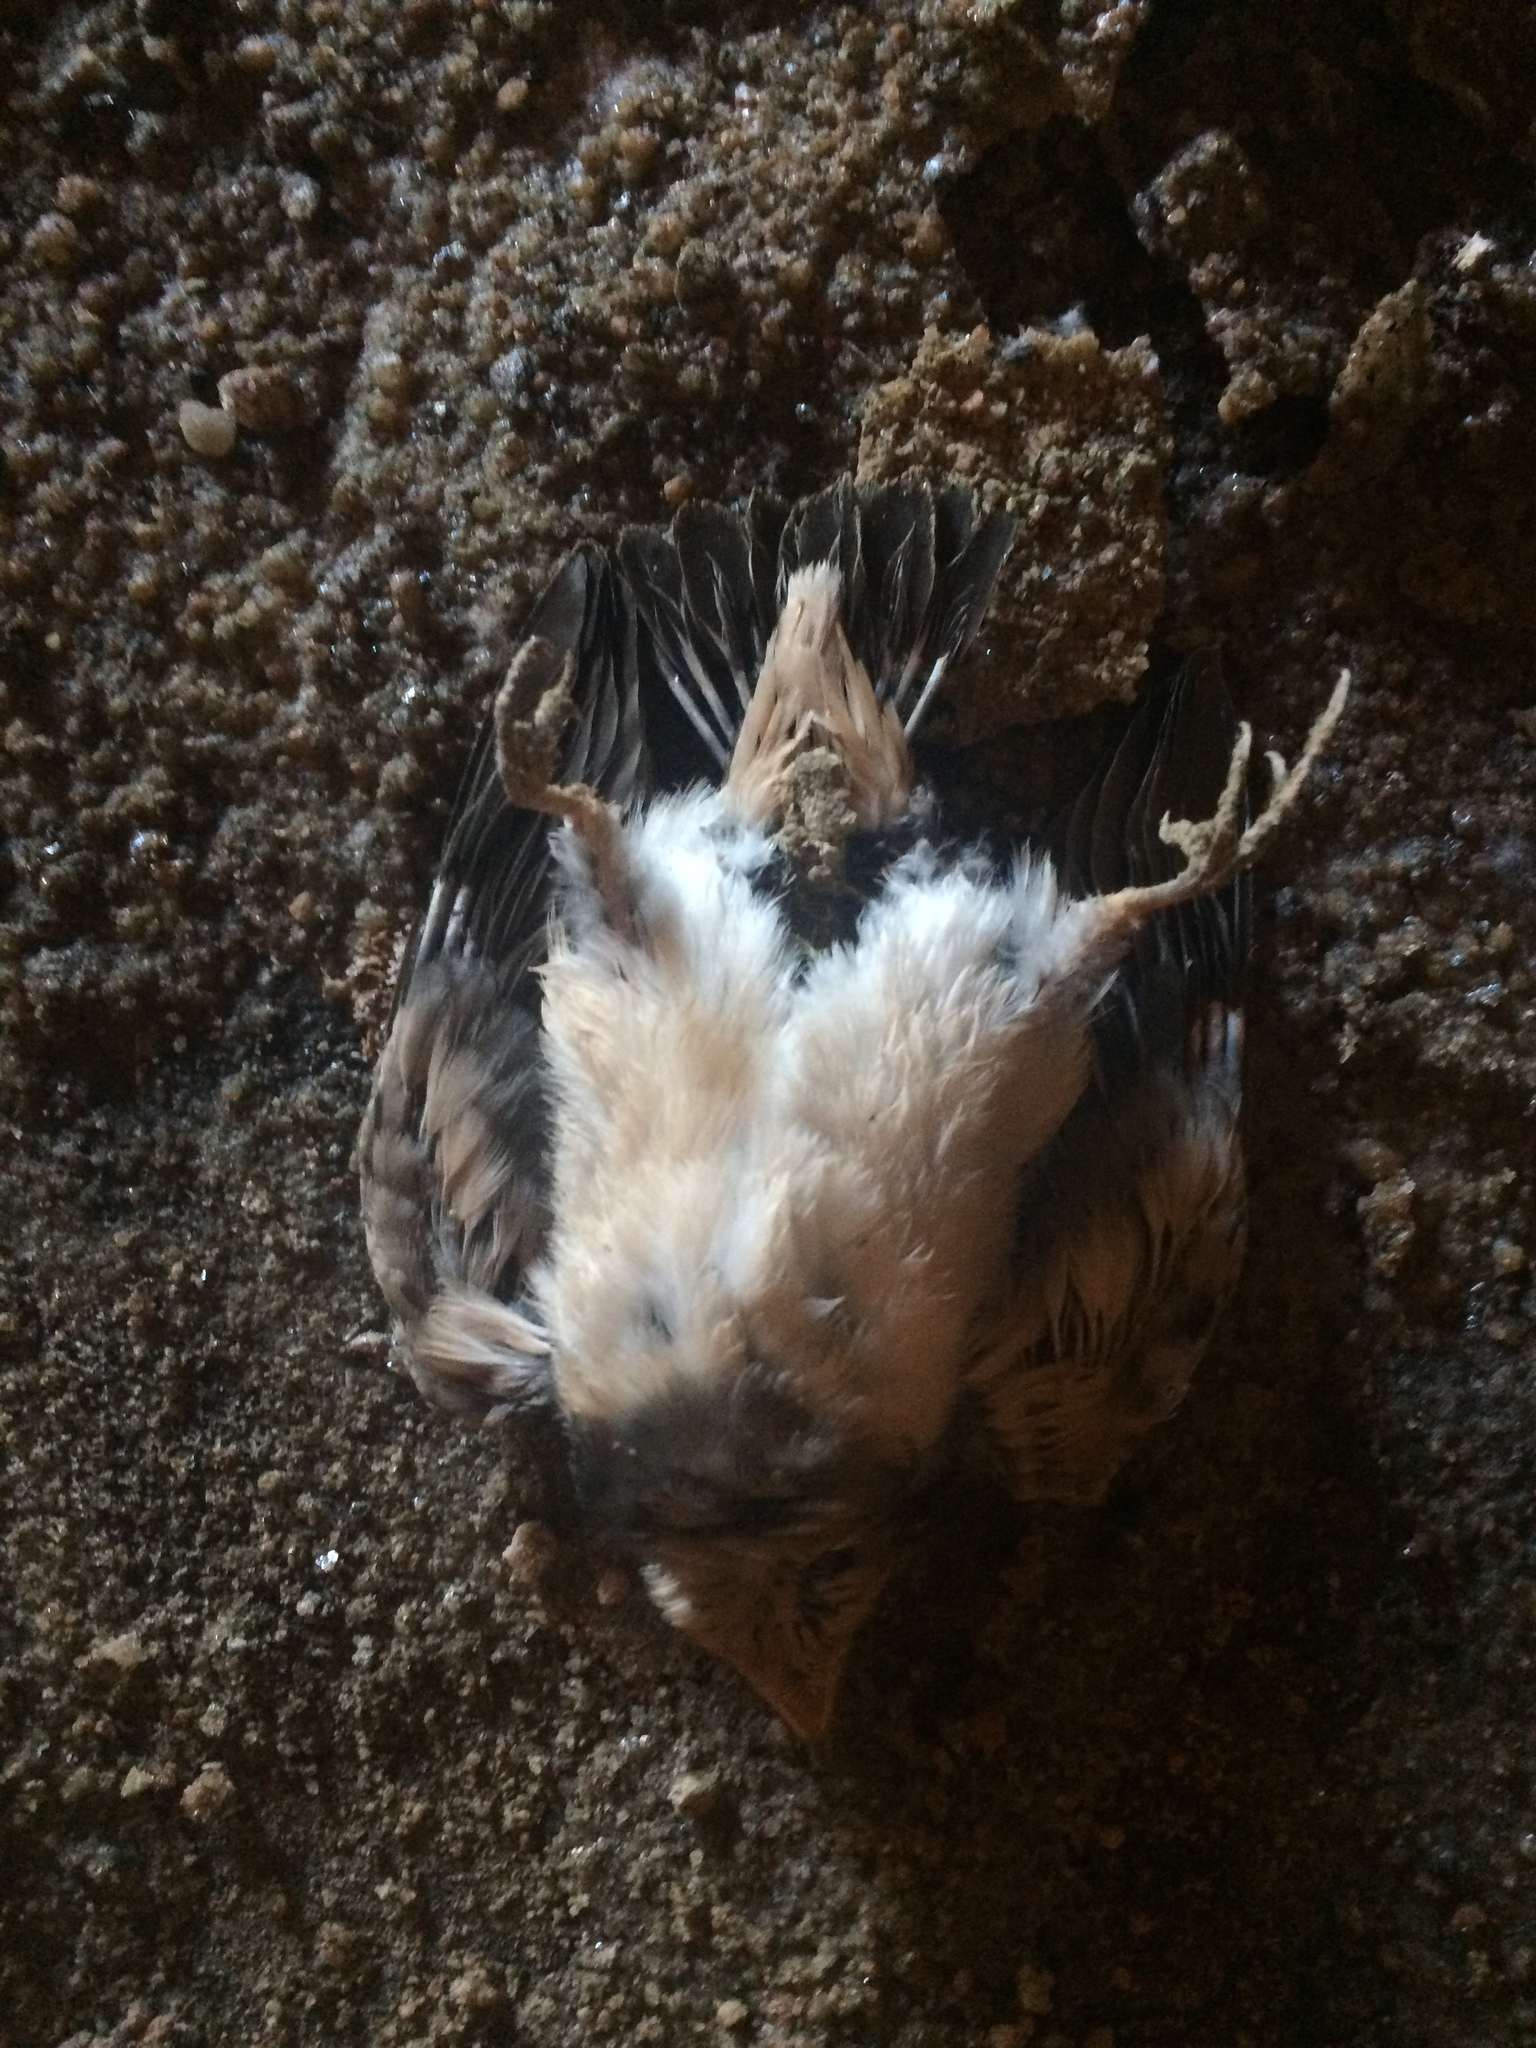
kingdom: Animalia
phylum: Chordata
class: Aves
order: Passeriformes
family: Hirundinidae
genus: Hirundo
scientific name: Hirundo rustica
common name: Barn swallow
